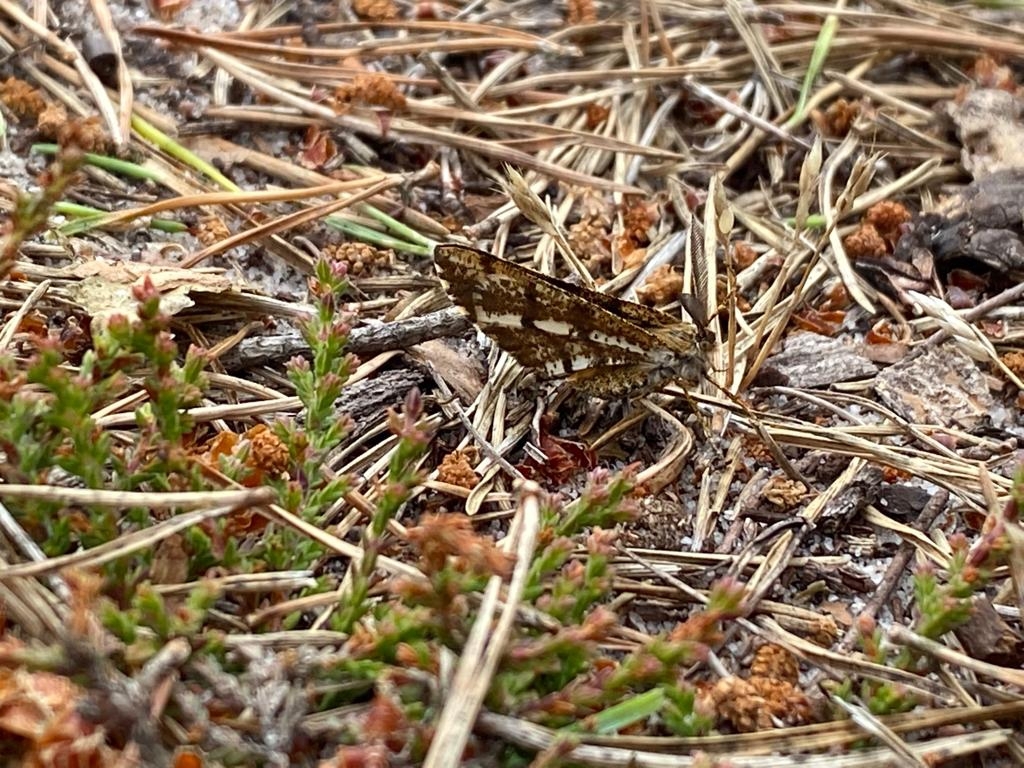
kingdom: Animalia
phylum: Arthropoda
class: Insecta
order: Lepidoptera
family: Geometridae
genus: Bupalus
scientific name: Bupalus piniaria
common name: Bordered white
